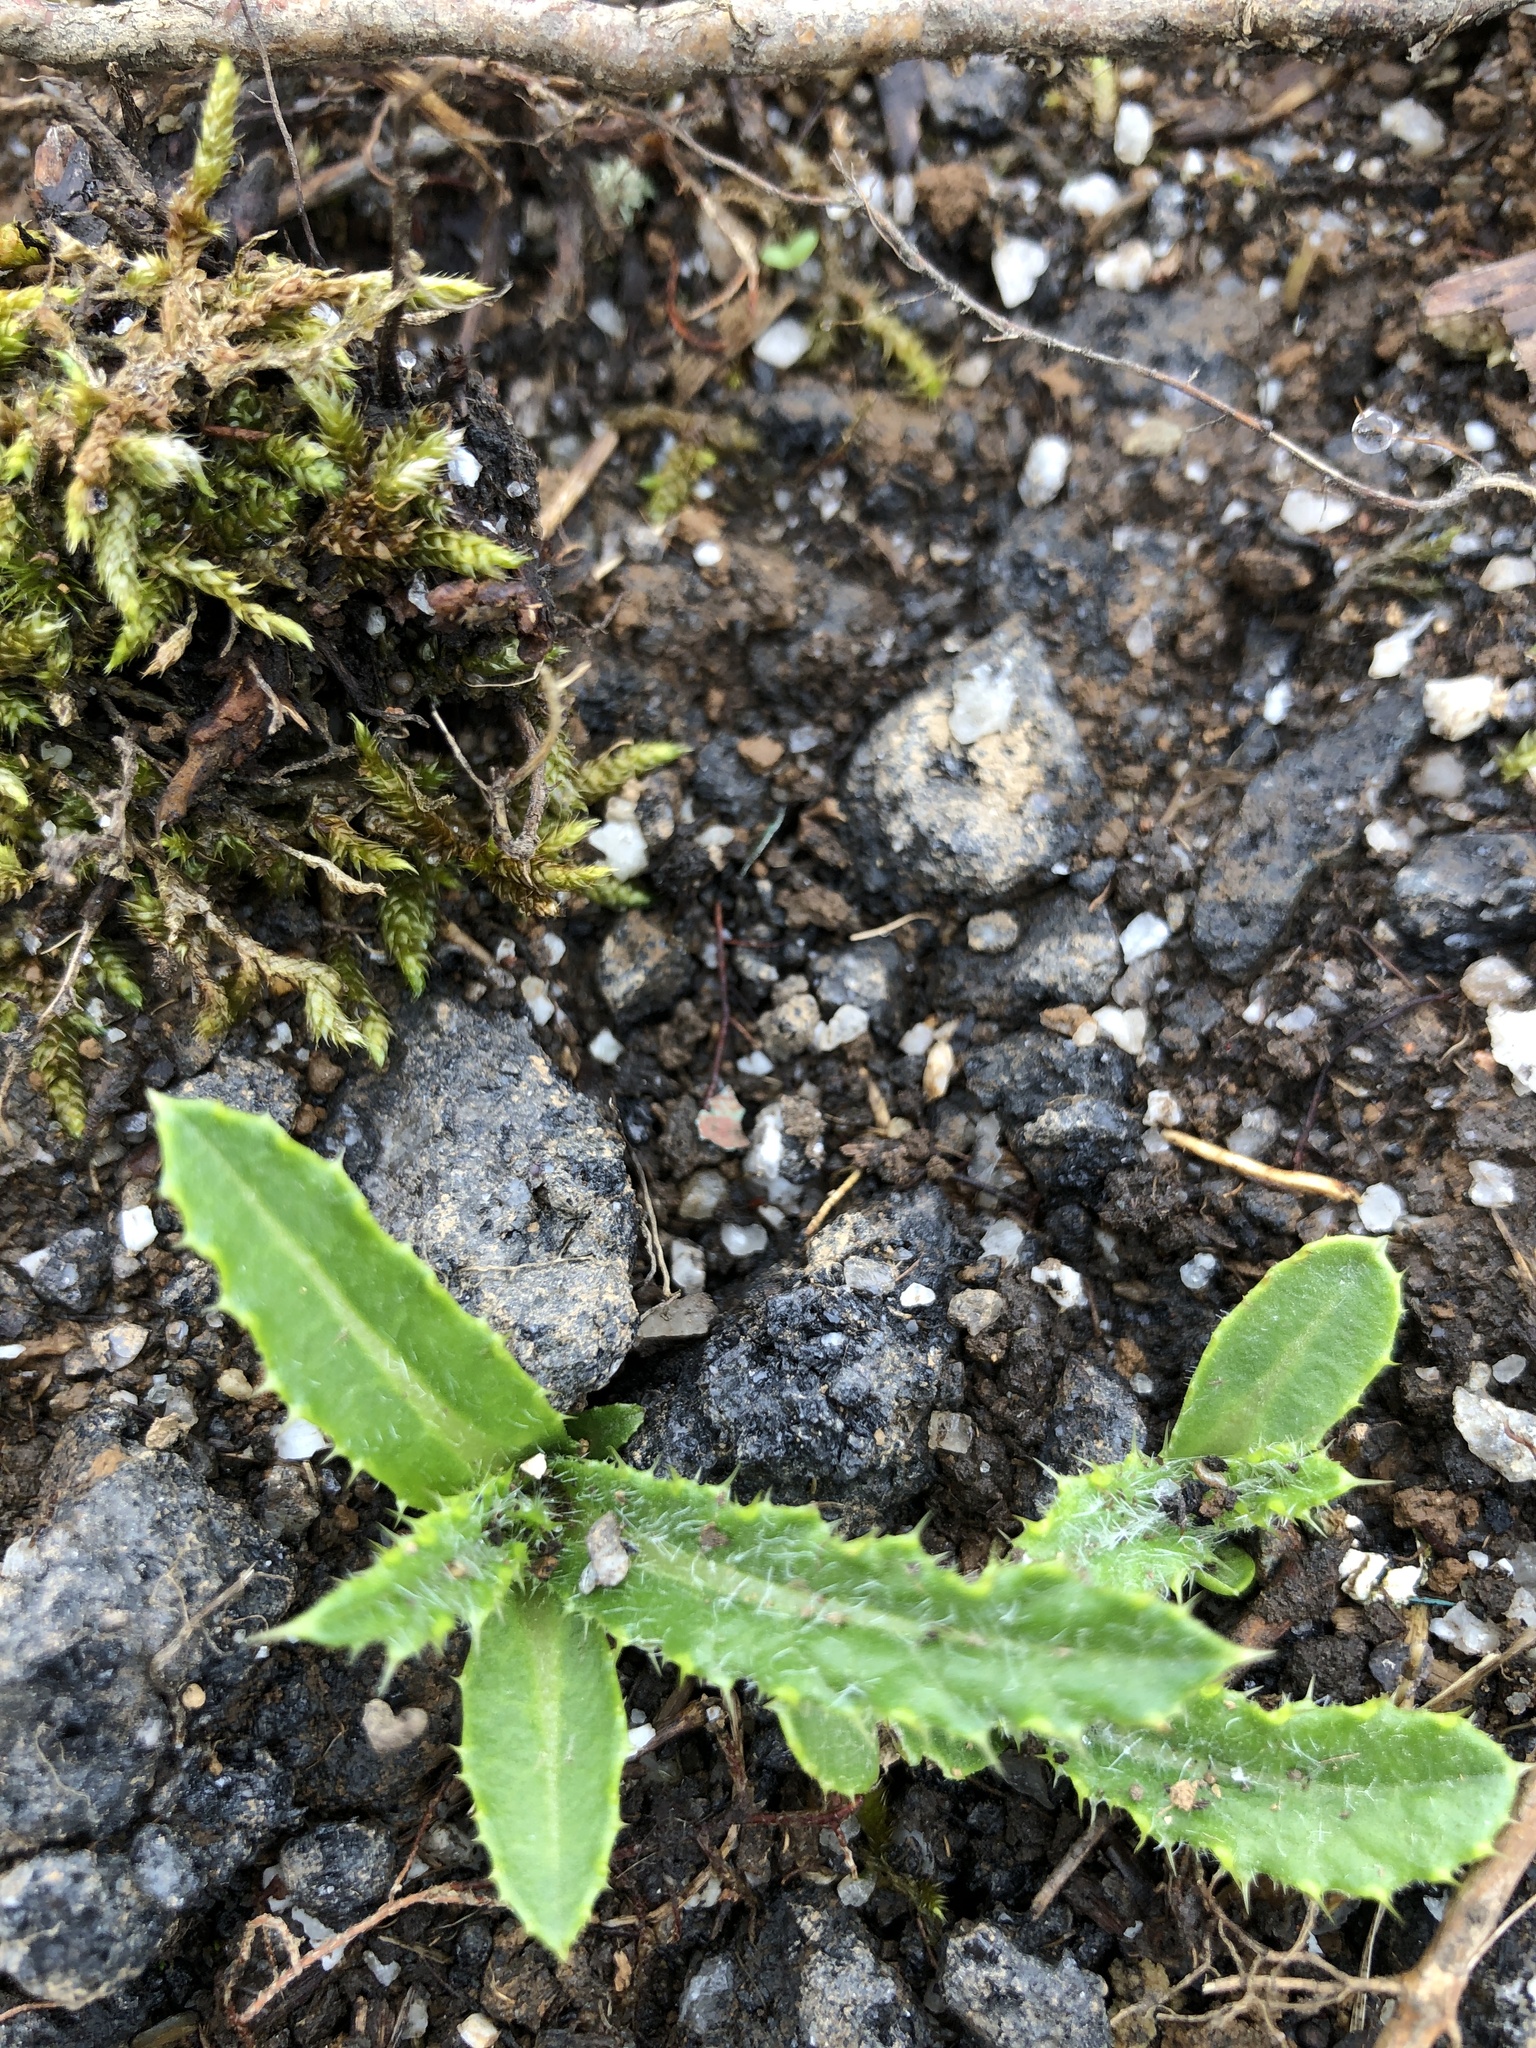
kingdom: Plantae
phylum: Tracheophyta
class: Magnoliopsida
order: Asterales
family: Asteraceae
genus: Cirsium
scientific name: Cirsium arvense
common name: Creeping thistle
